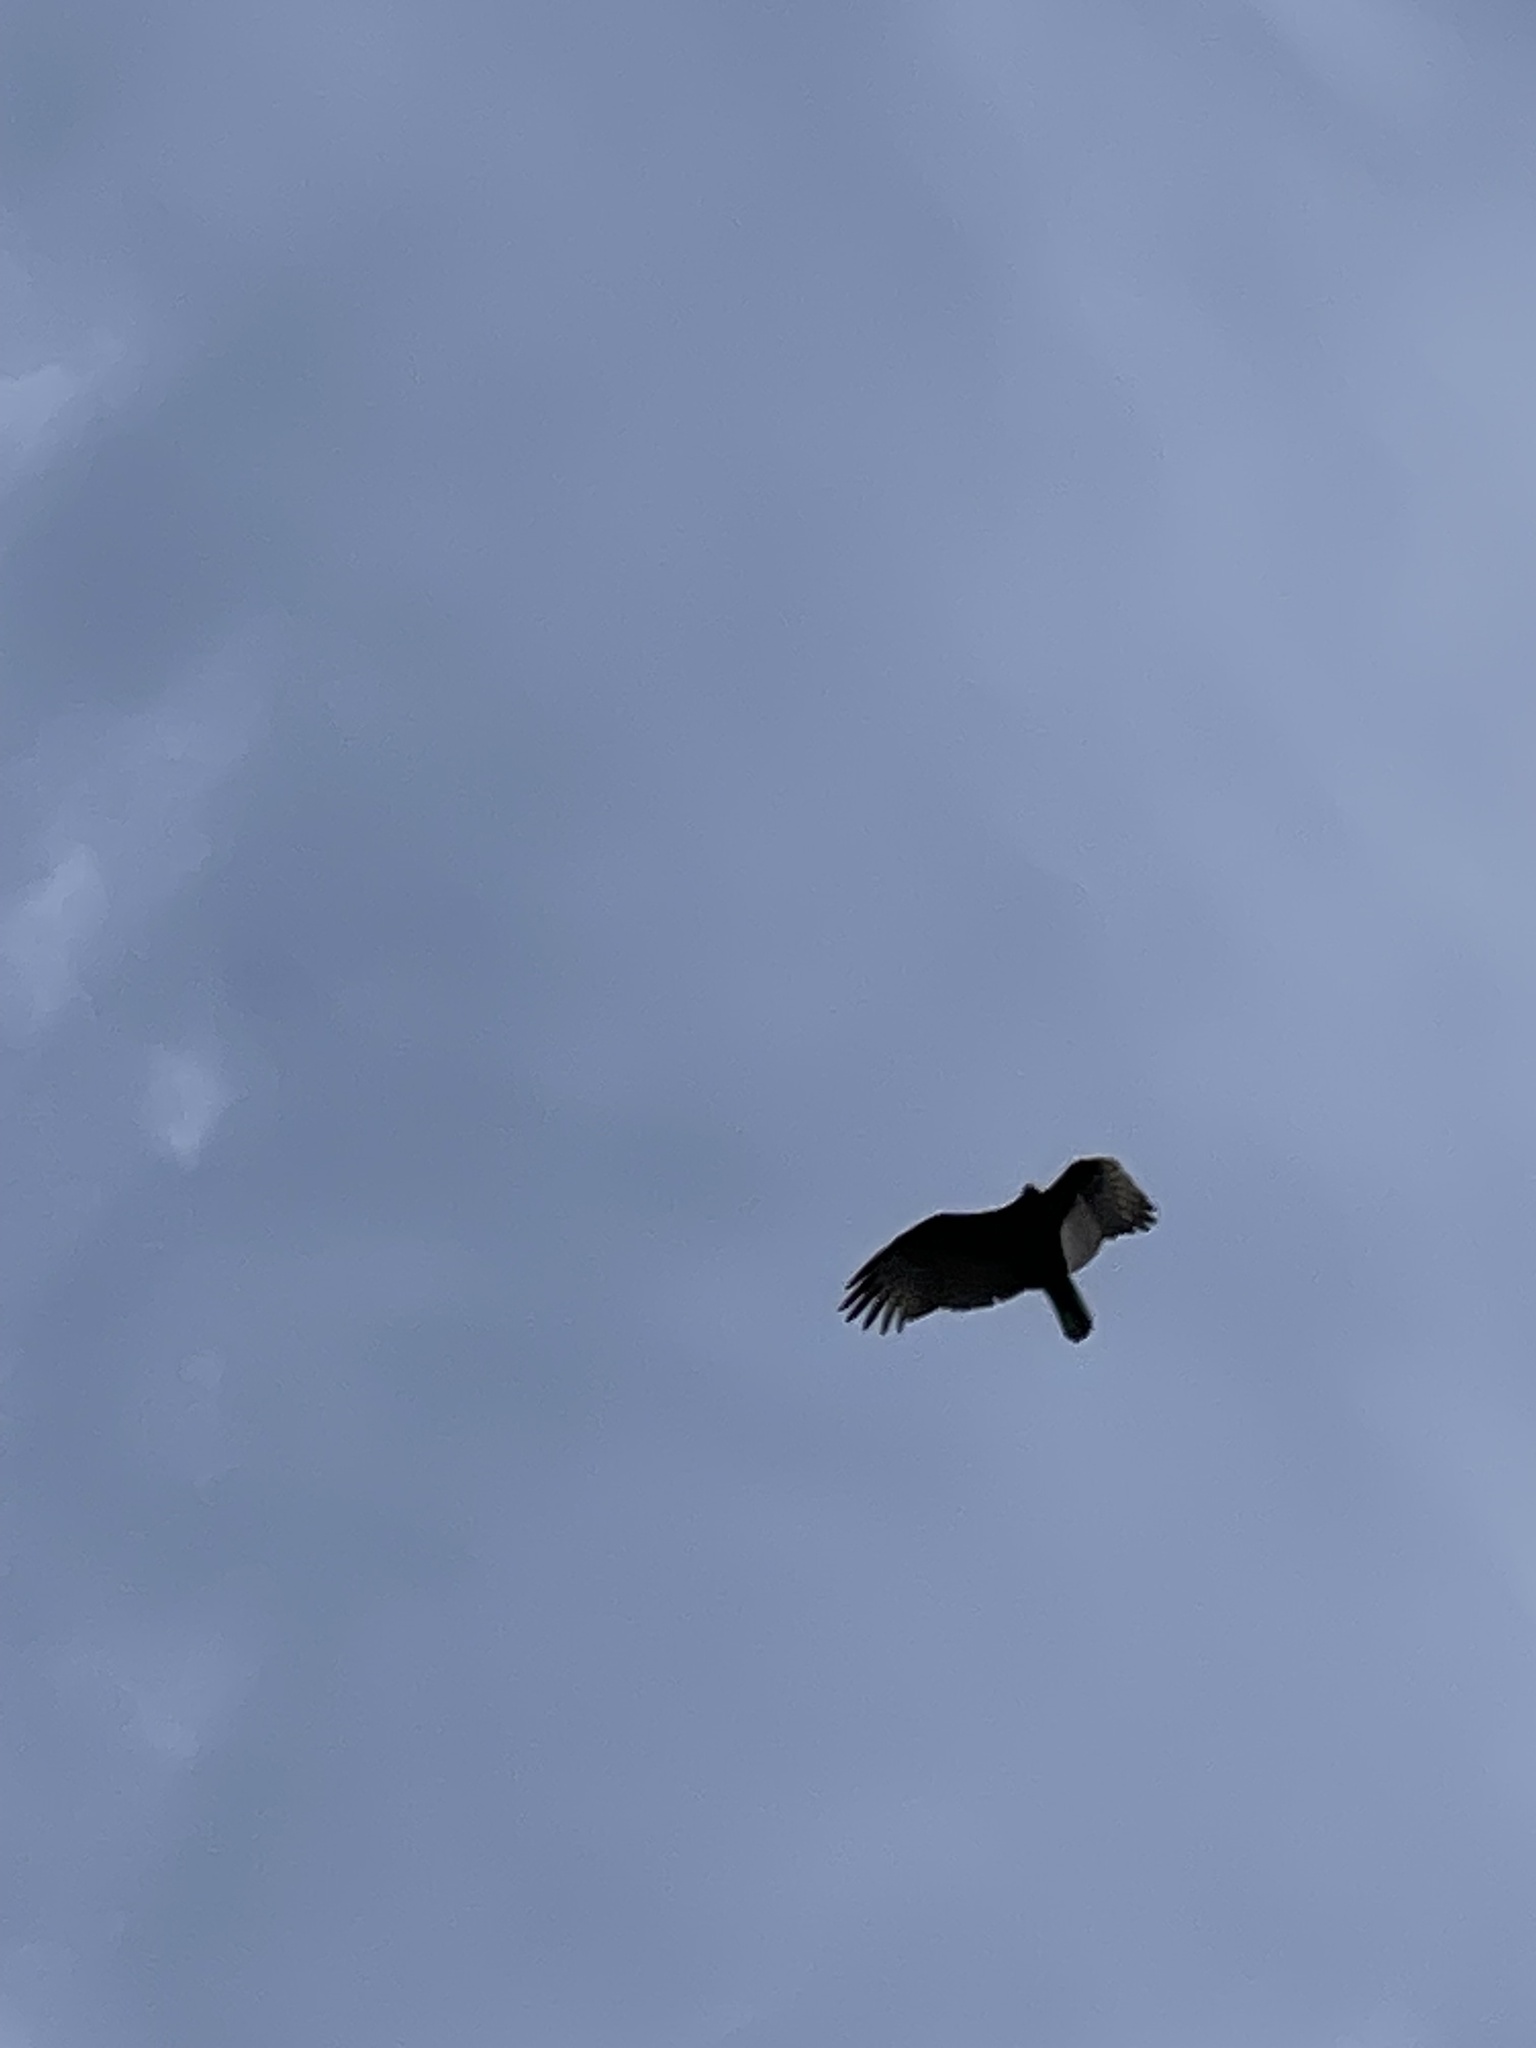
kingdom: Animalia
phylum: Chordata
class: Aves
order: Accipitriformes
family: Cathartidae
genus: Cathartes
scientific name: Cathartes aura
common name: Turkey vulture
